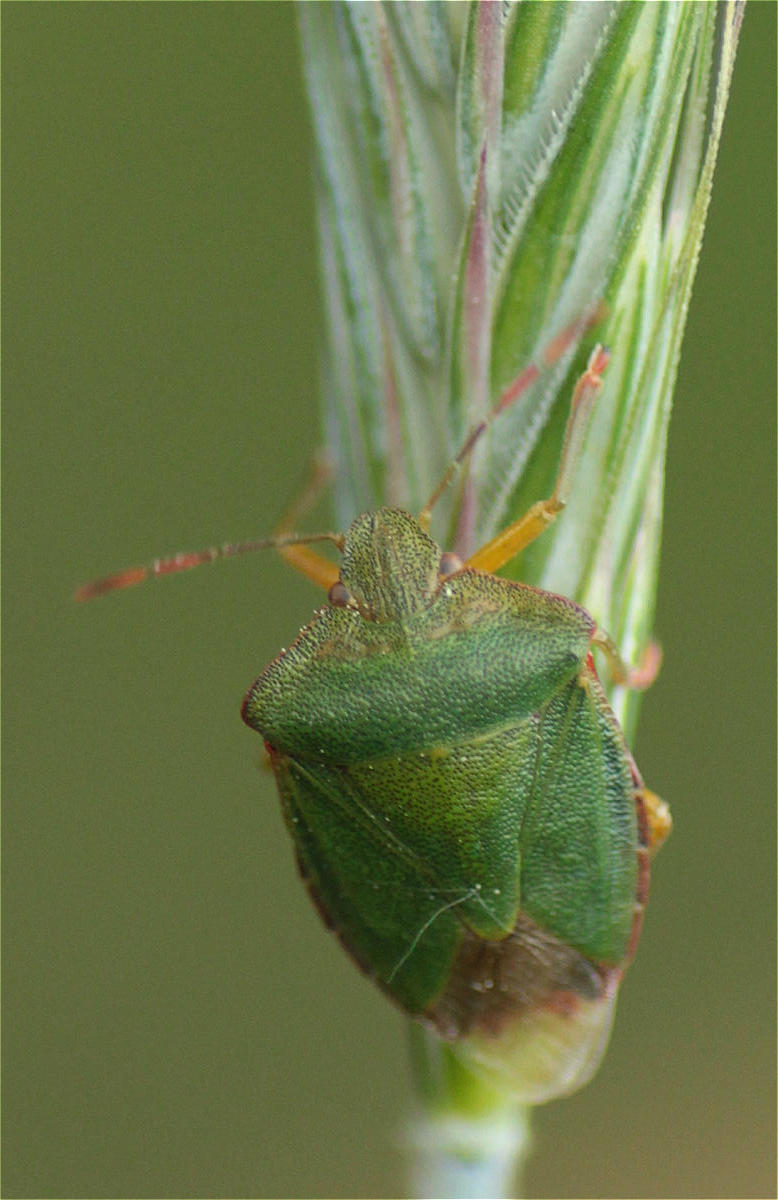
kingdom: Animalia
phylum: Arthropoda
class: Insecta
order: Hemiptera
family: Pentatomidae
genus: Palomena
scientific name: Palomena prasina
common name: Green shieldbug
